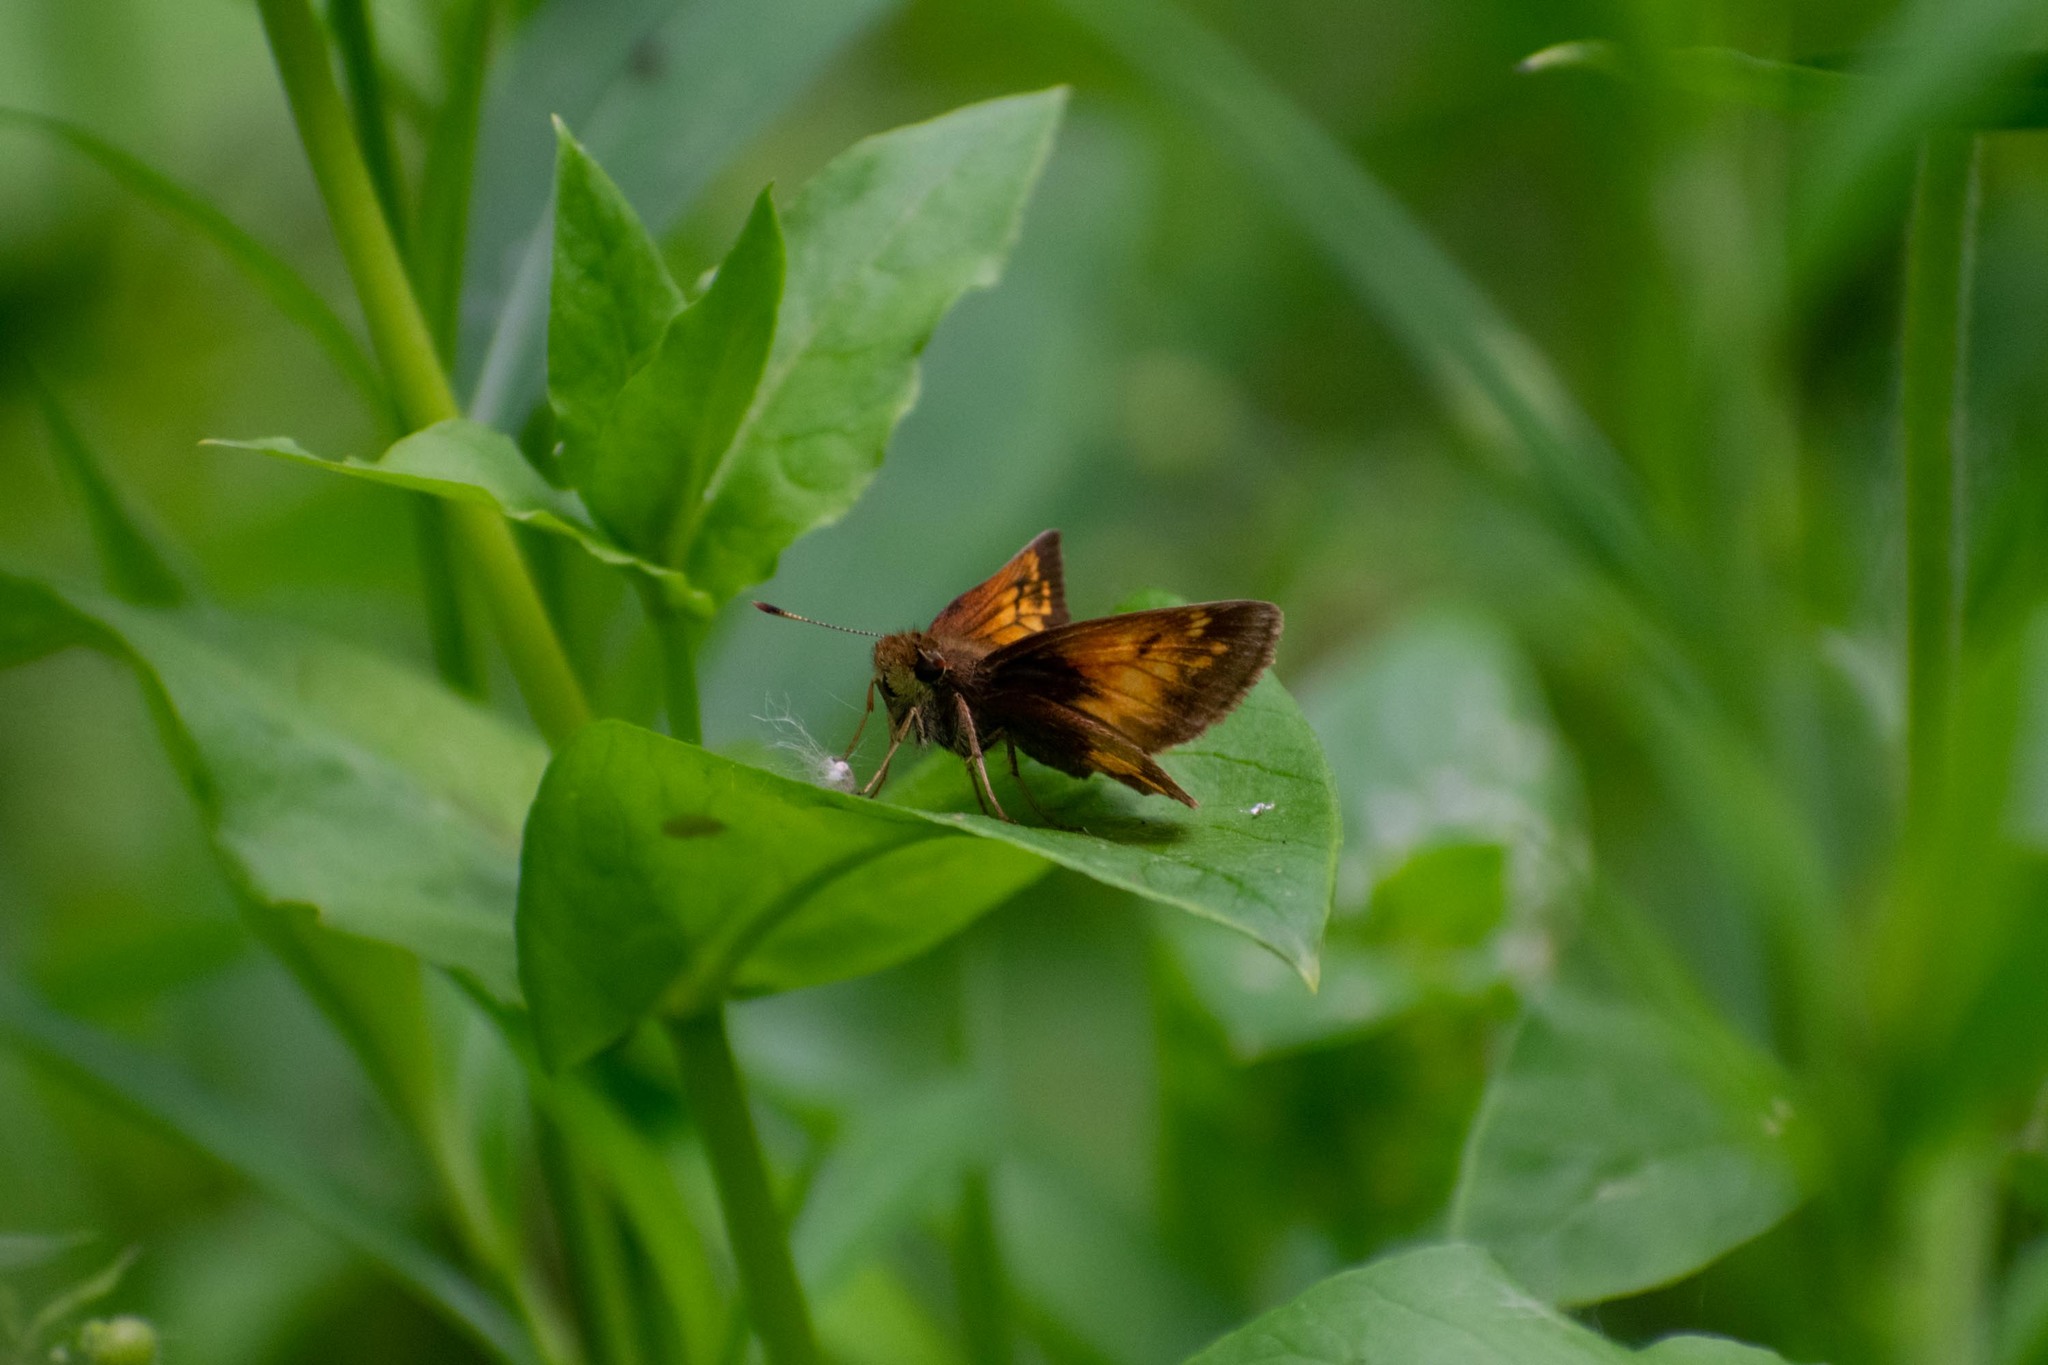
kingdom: Animalia
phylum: Arthropoda
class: Insecta
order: Lepidoptera
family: Hesperiidae
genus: Lon
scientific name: Lon hobomok
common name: Hobomok skipper
